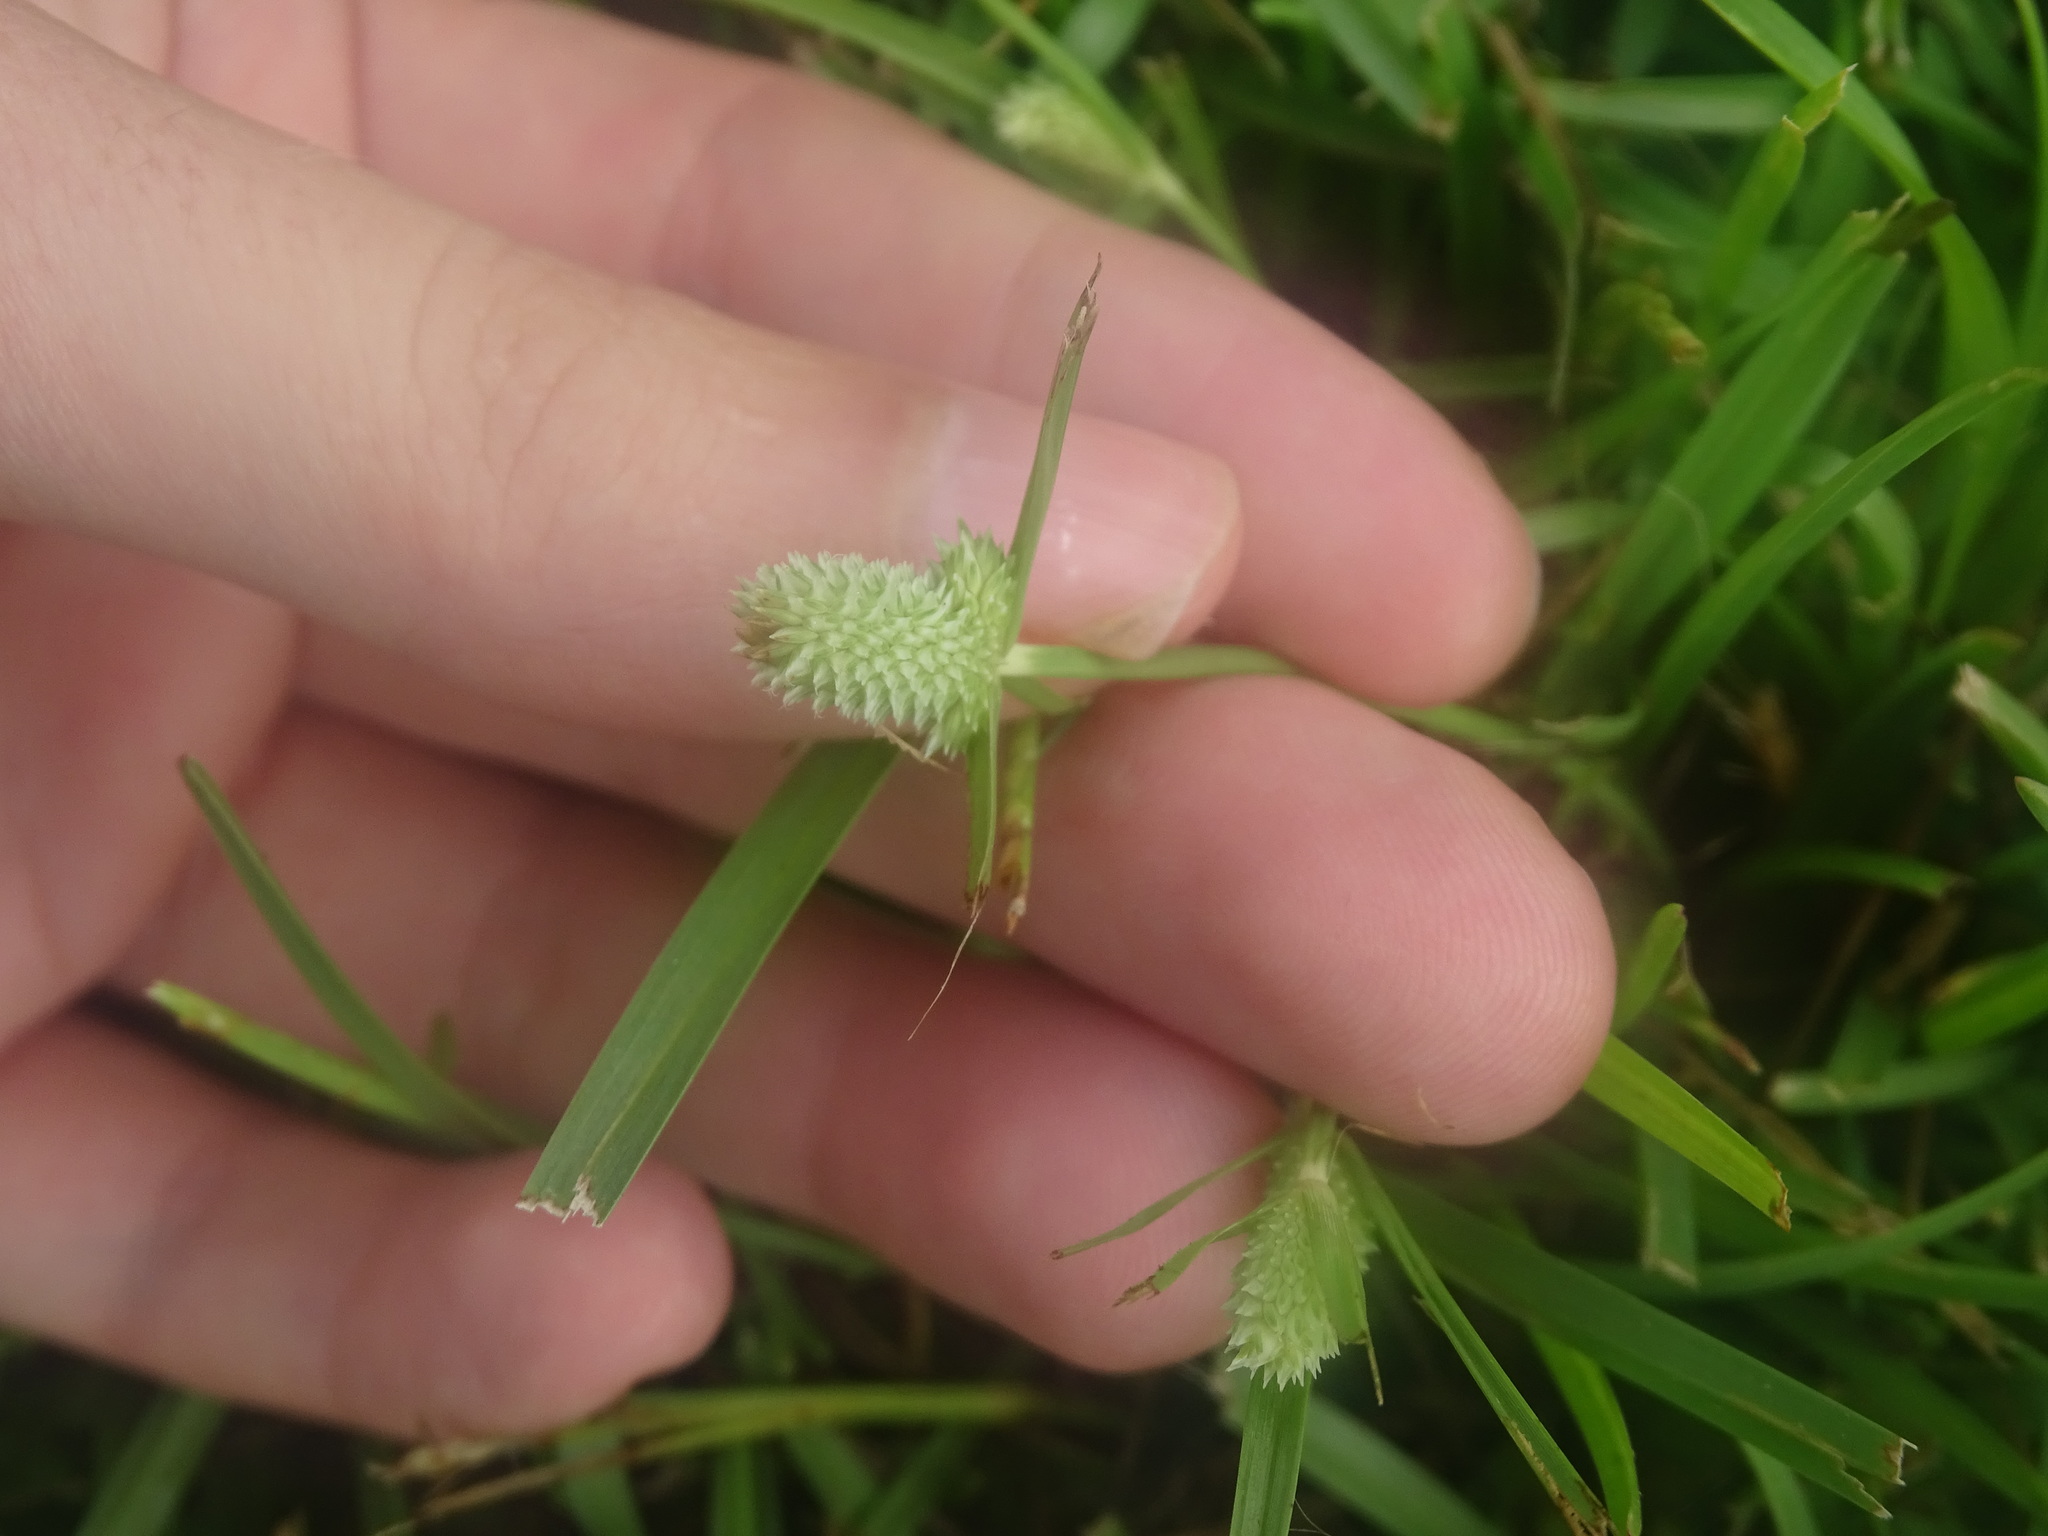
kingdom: Plantae
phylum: Tracheophyta
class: Liliopsida
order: Poales
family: Cyperaceae
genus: Cyperus
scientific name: Cyperus sesquiflorus
